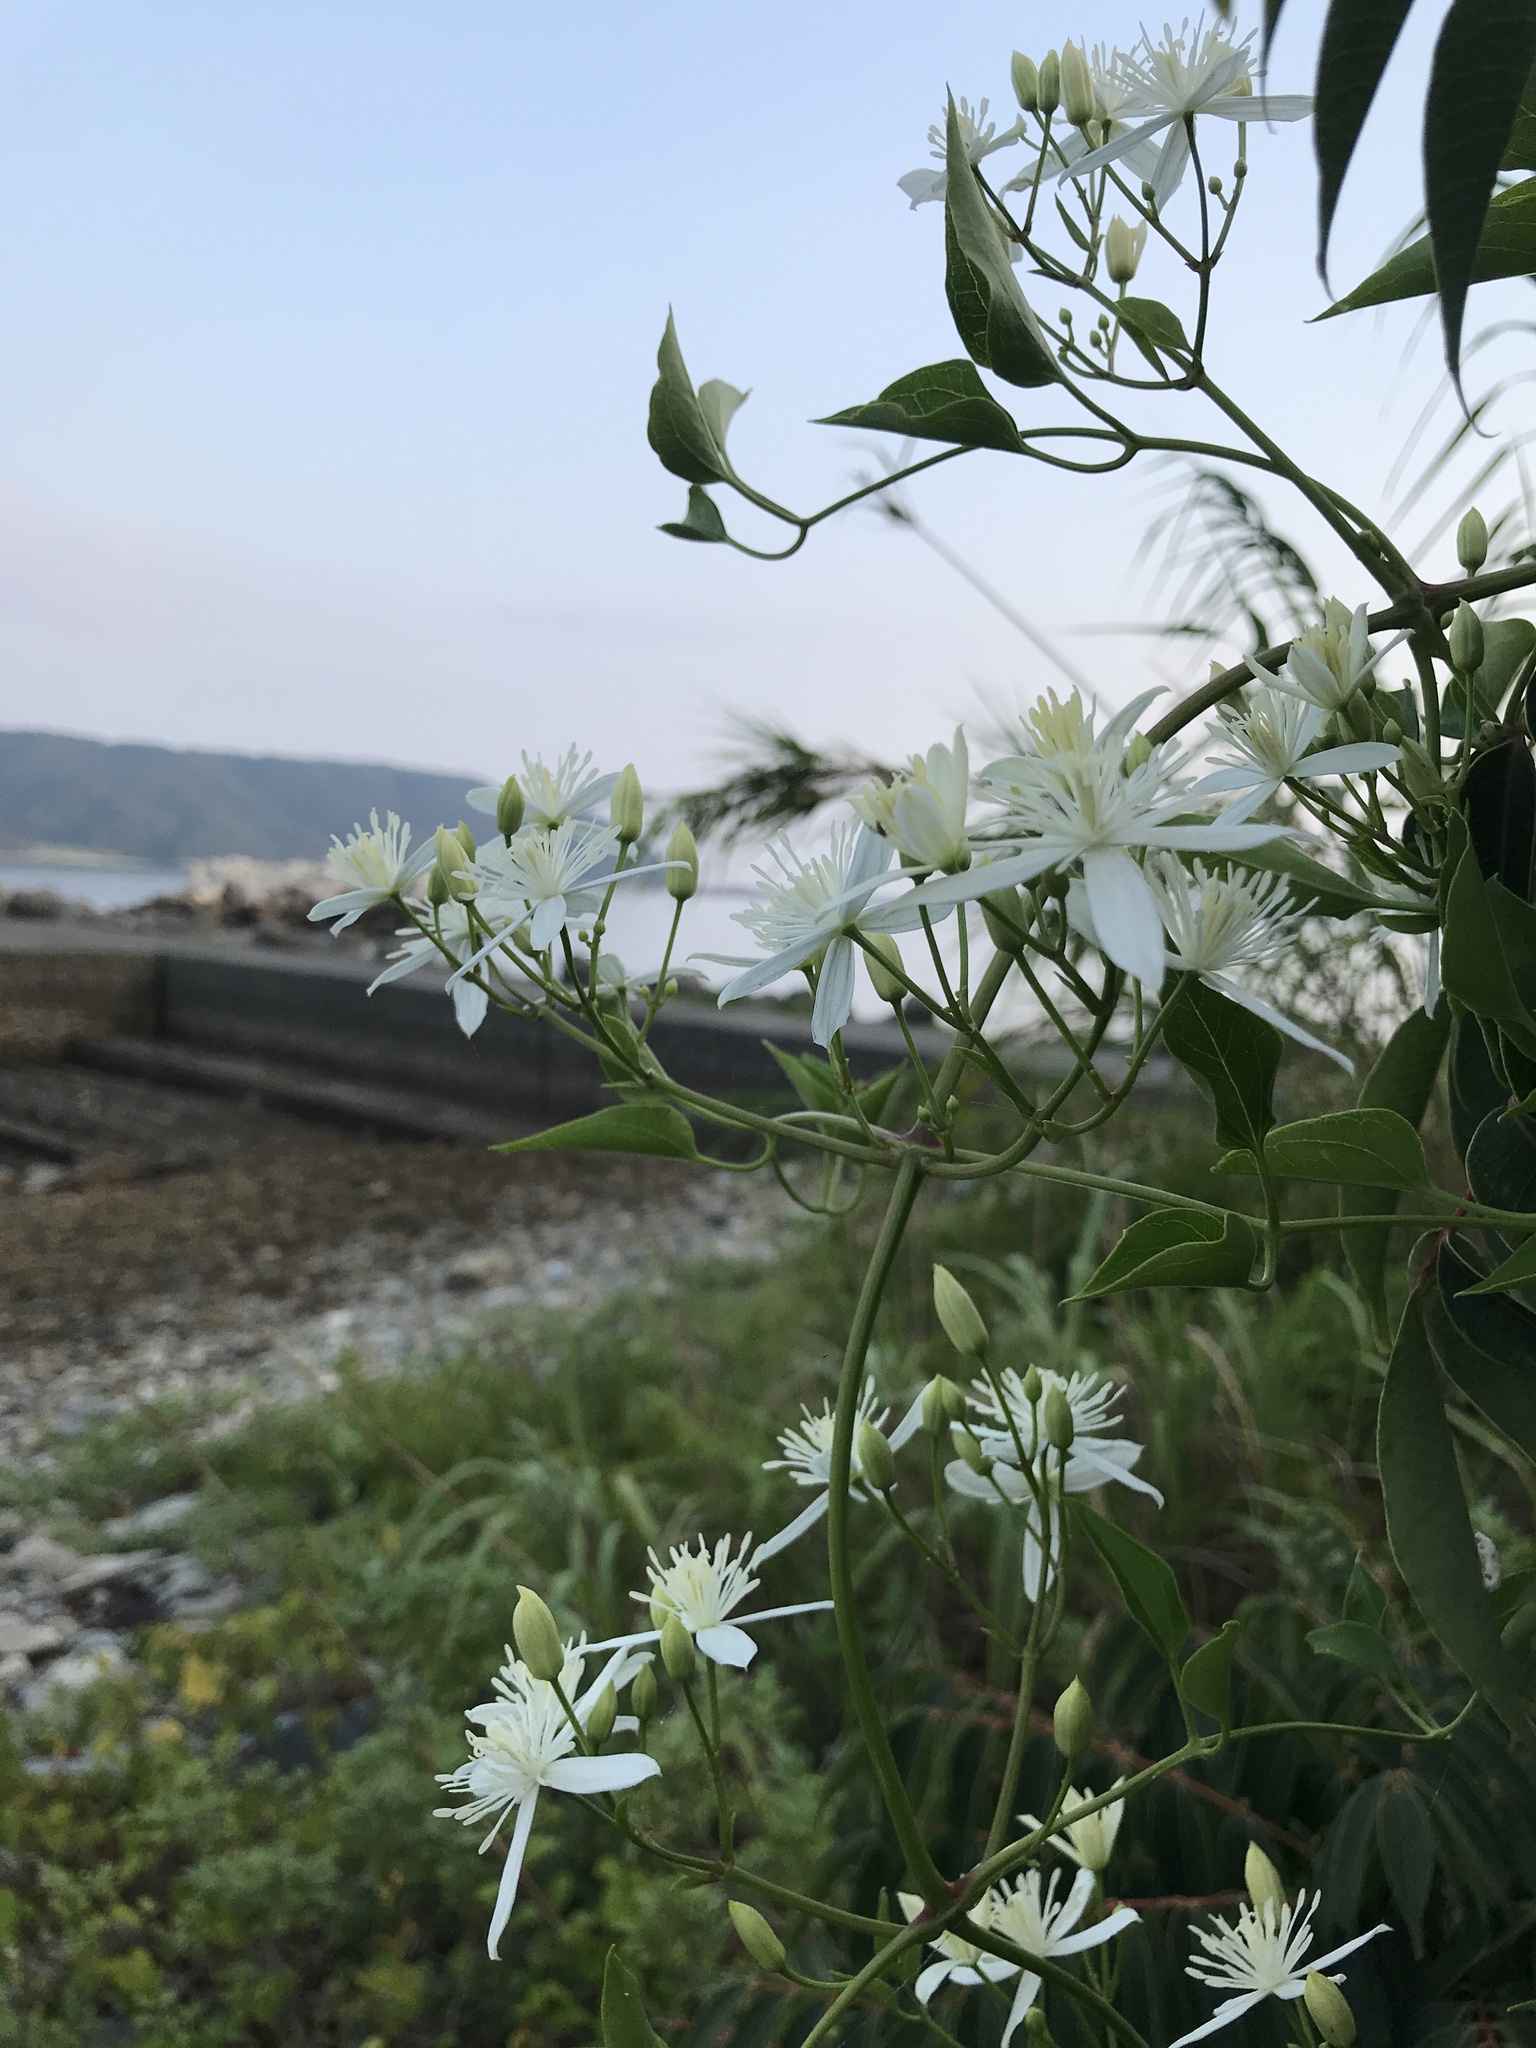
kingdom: Plantae
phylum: Tracheophyta
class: Magnoliopsida
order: Ranunculales
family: Ranunculaceae
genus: Clematis
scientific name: Clematis terniflora
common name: Sweet autumn clematis
